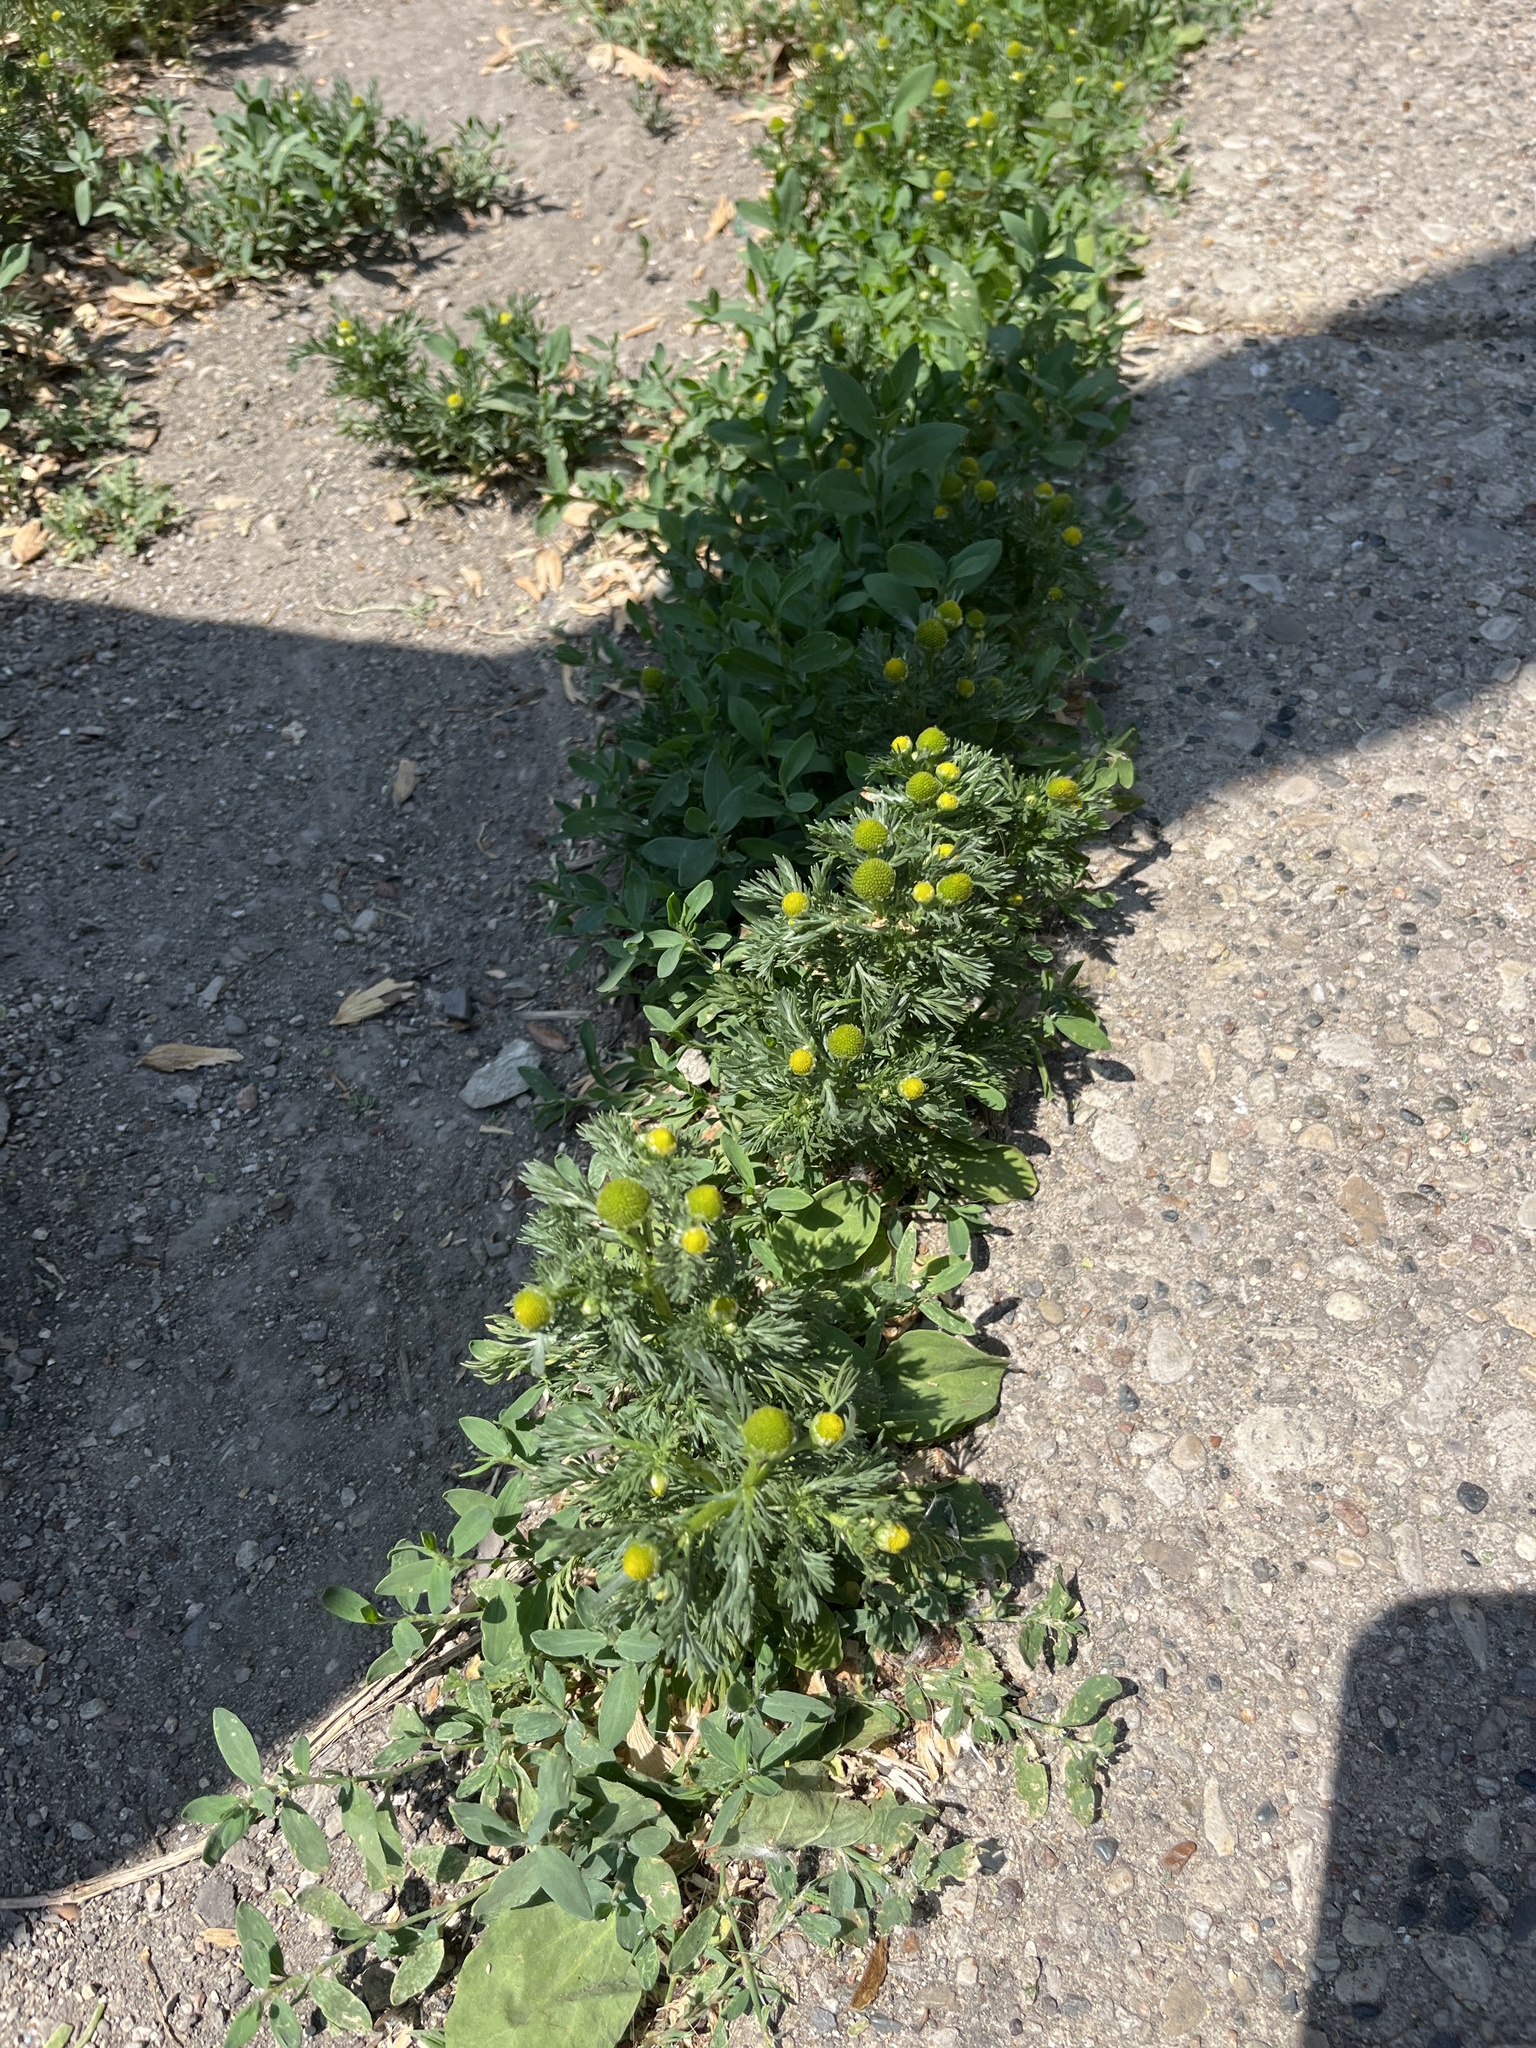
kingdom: Plantae
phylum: Tracheophyta
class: Magnoliopsida
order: Asterales
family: Asteraceae
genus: Matricaria
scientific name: Matricaria discoidea
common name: Disc mayweed
